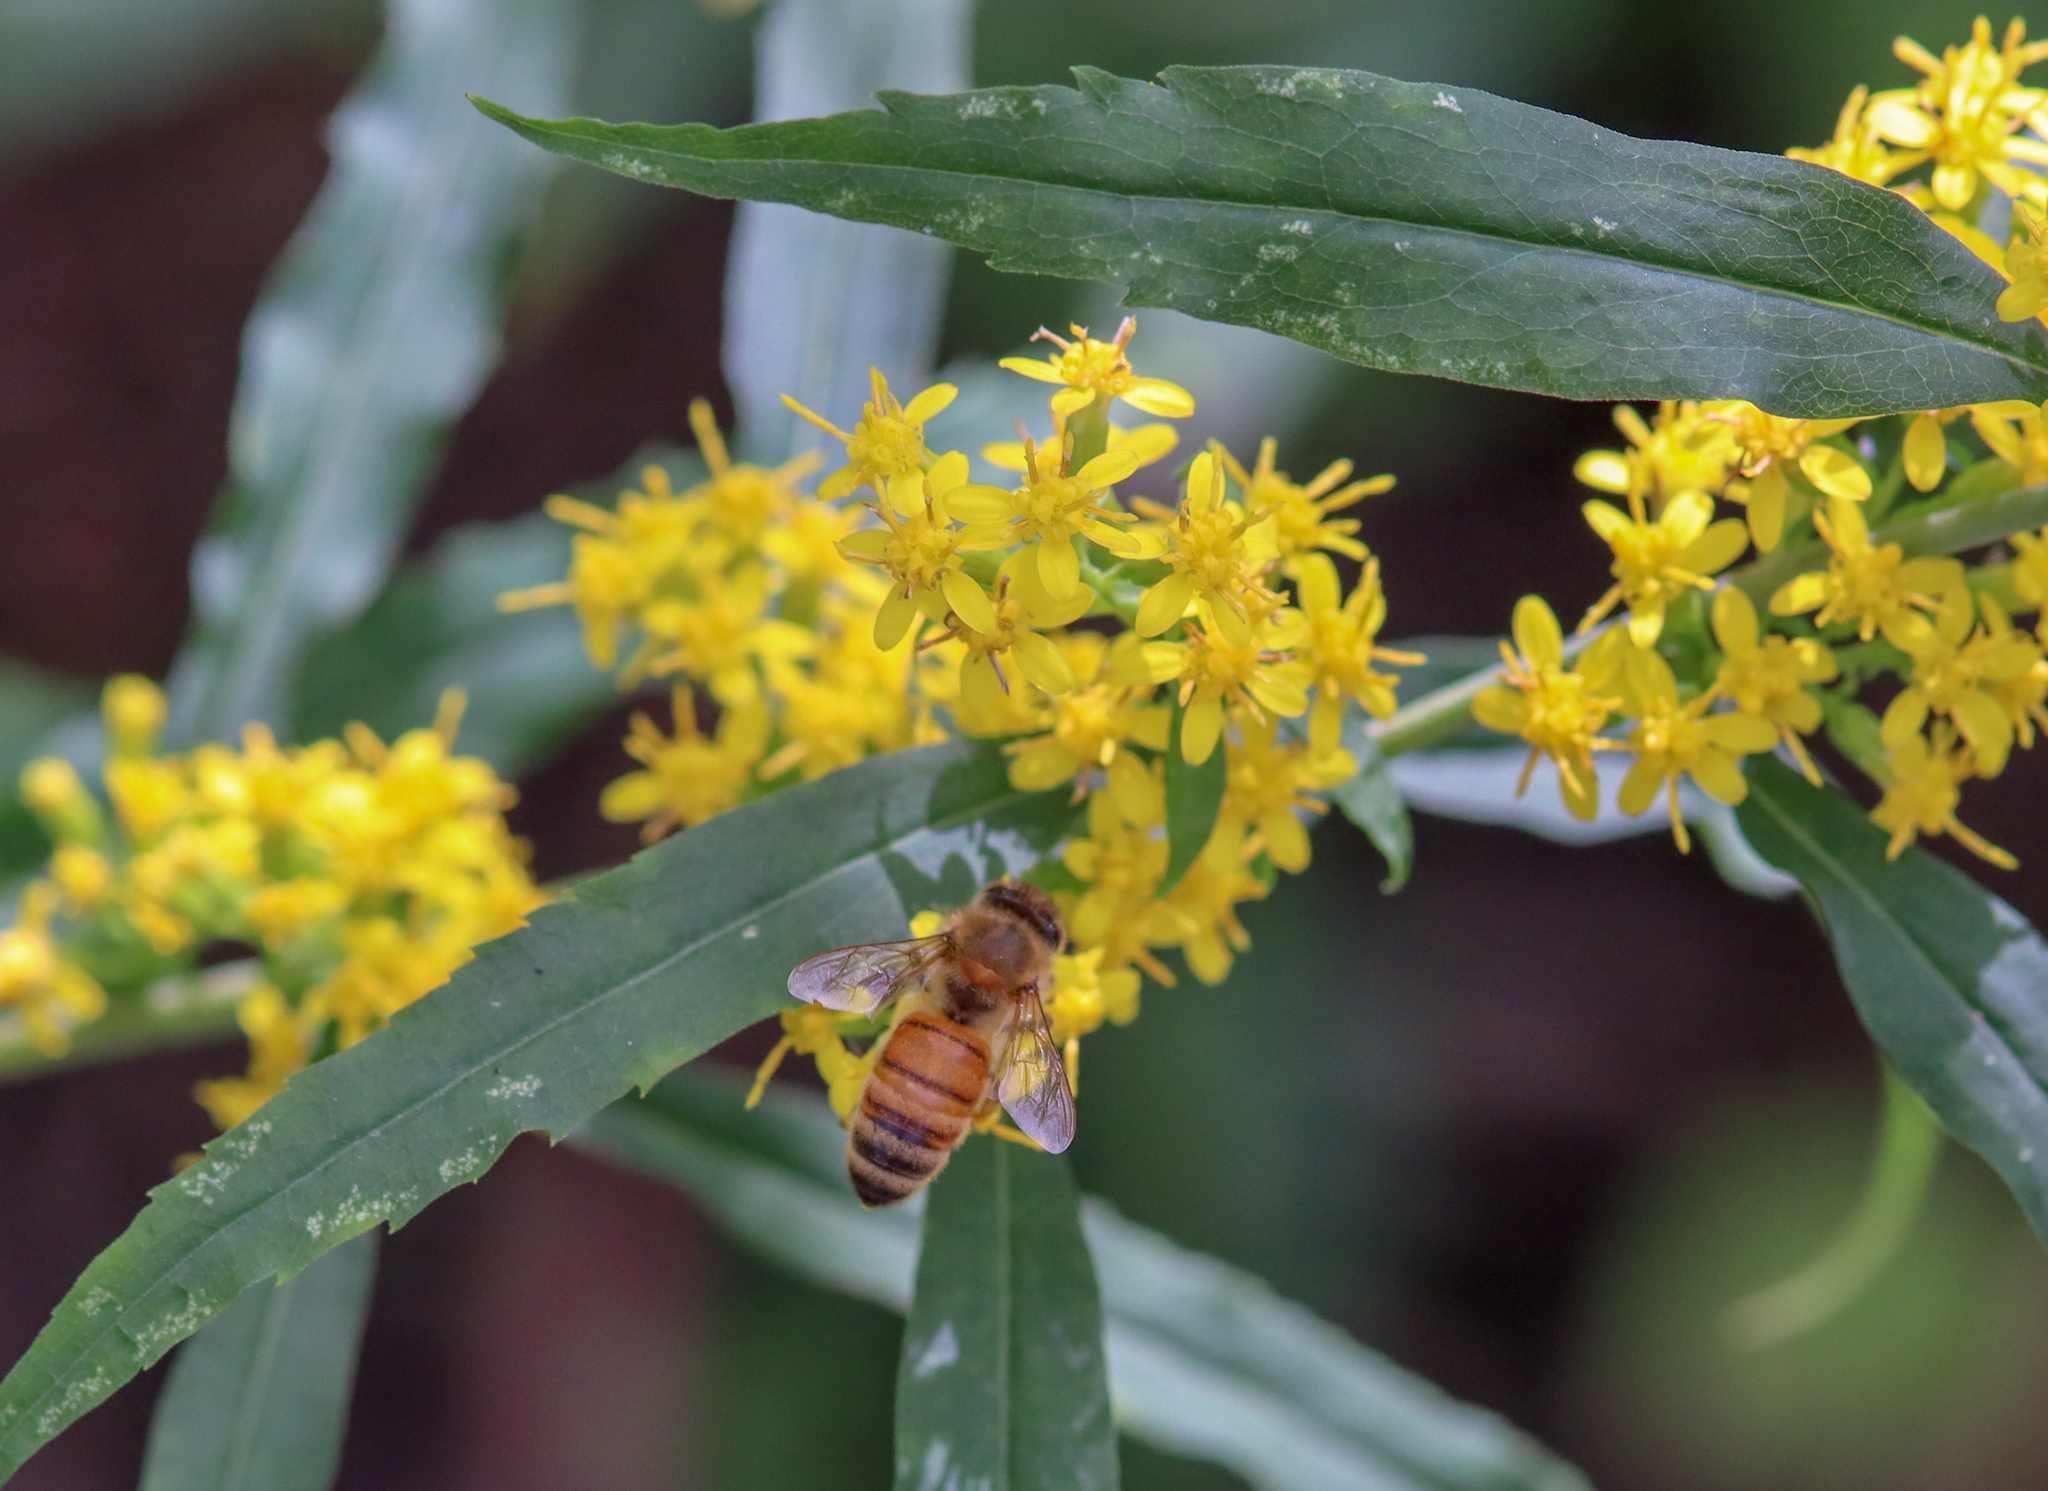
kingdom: Animalia
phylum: Arthropoda
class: Insecta
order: Hymenoptera
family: Apidae
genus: Apis
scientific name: Apis mellifera
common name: Honey bee
